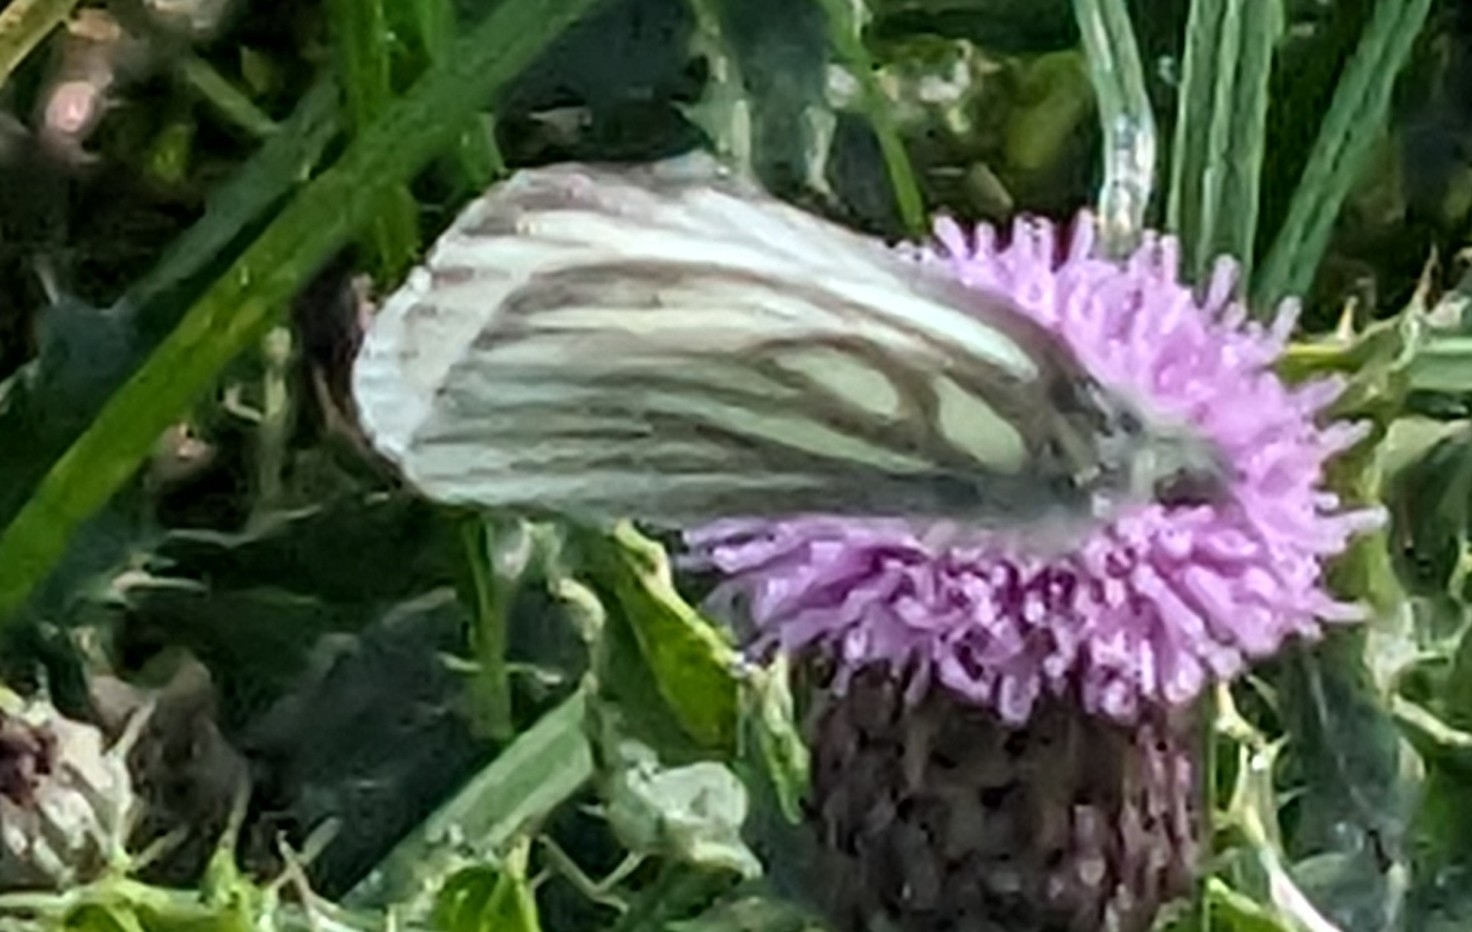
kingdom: Animalia
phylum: Arthropoda
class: Insecta
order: Lepidoptera
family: Pieridae
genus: Pieris
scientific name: Pieris napi
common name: Green-veined white
